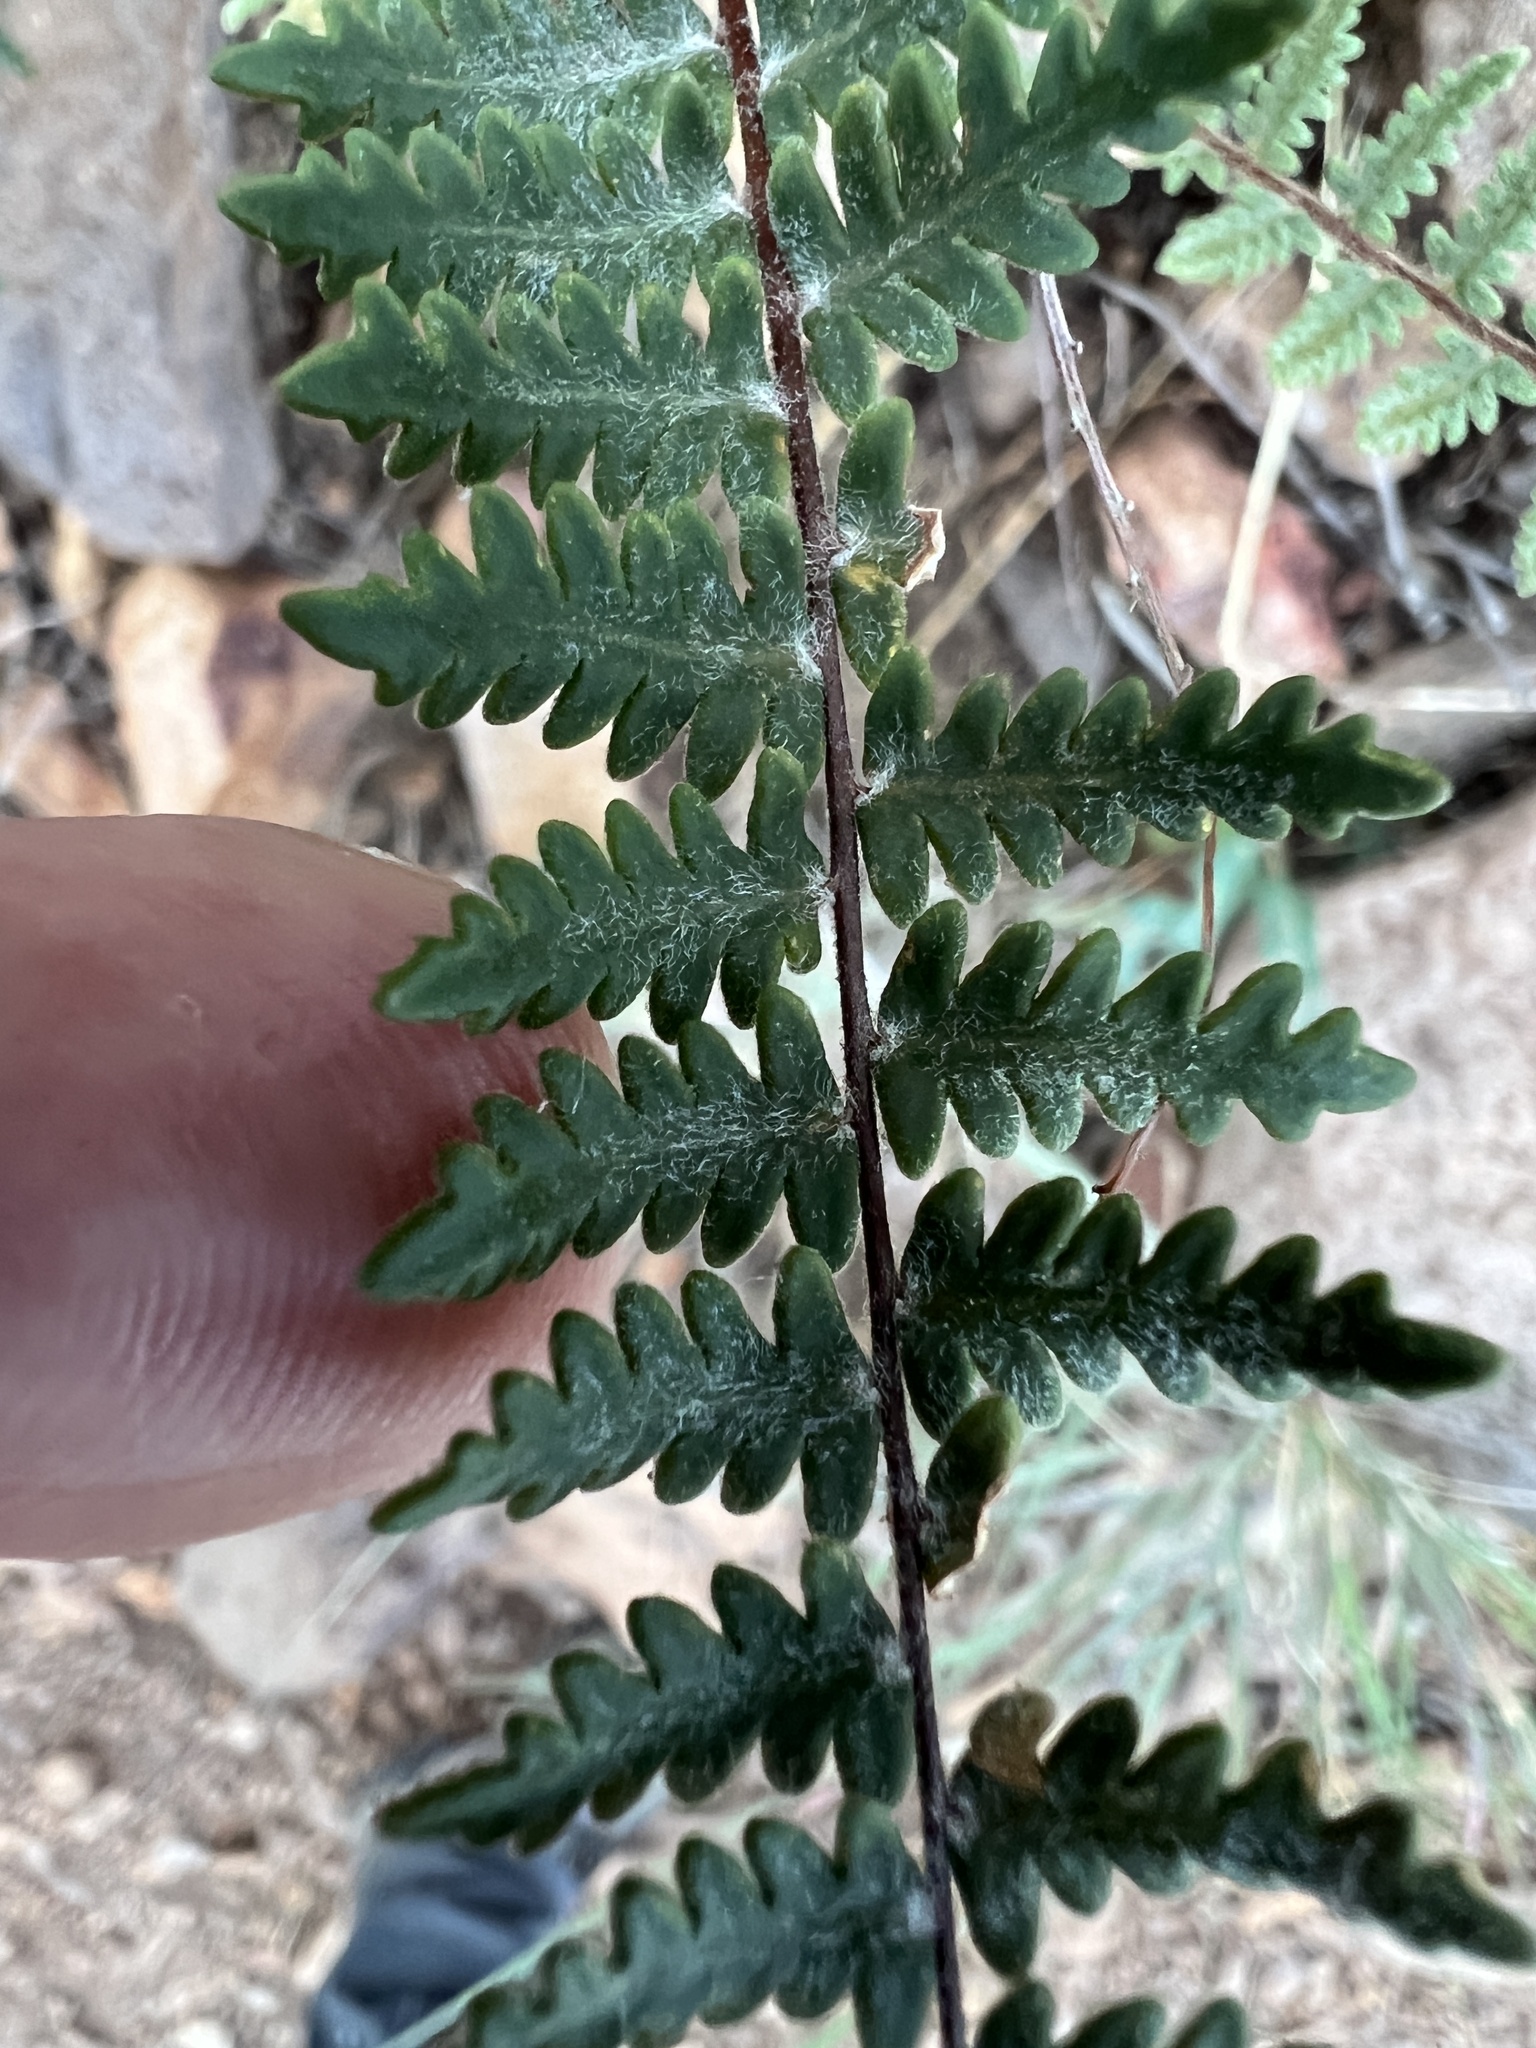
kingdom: Plantae
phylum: Tracheophyta
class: Polypodiopsida
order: Polypodiales
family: Pteridaceae
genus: Myriopteris
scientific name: Myriopteris aurea
